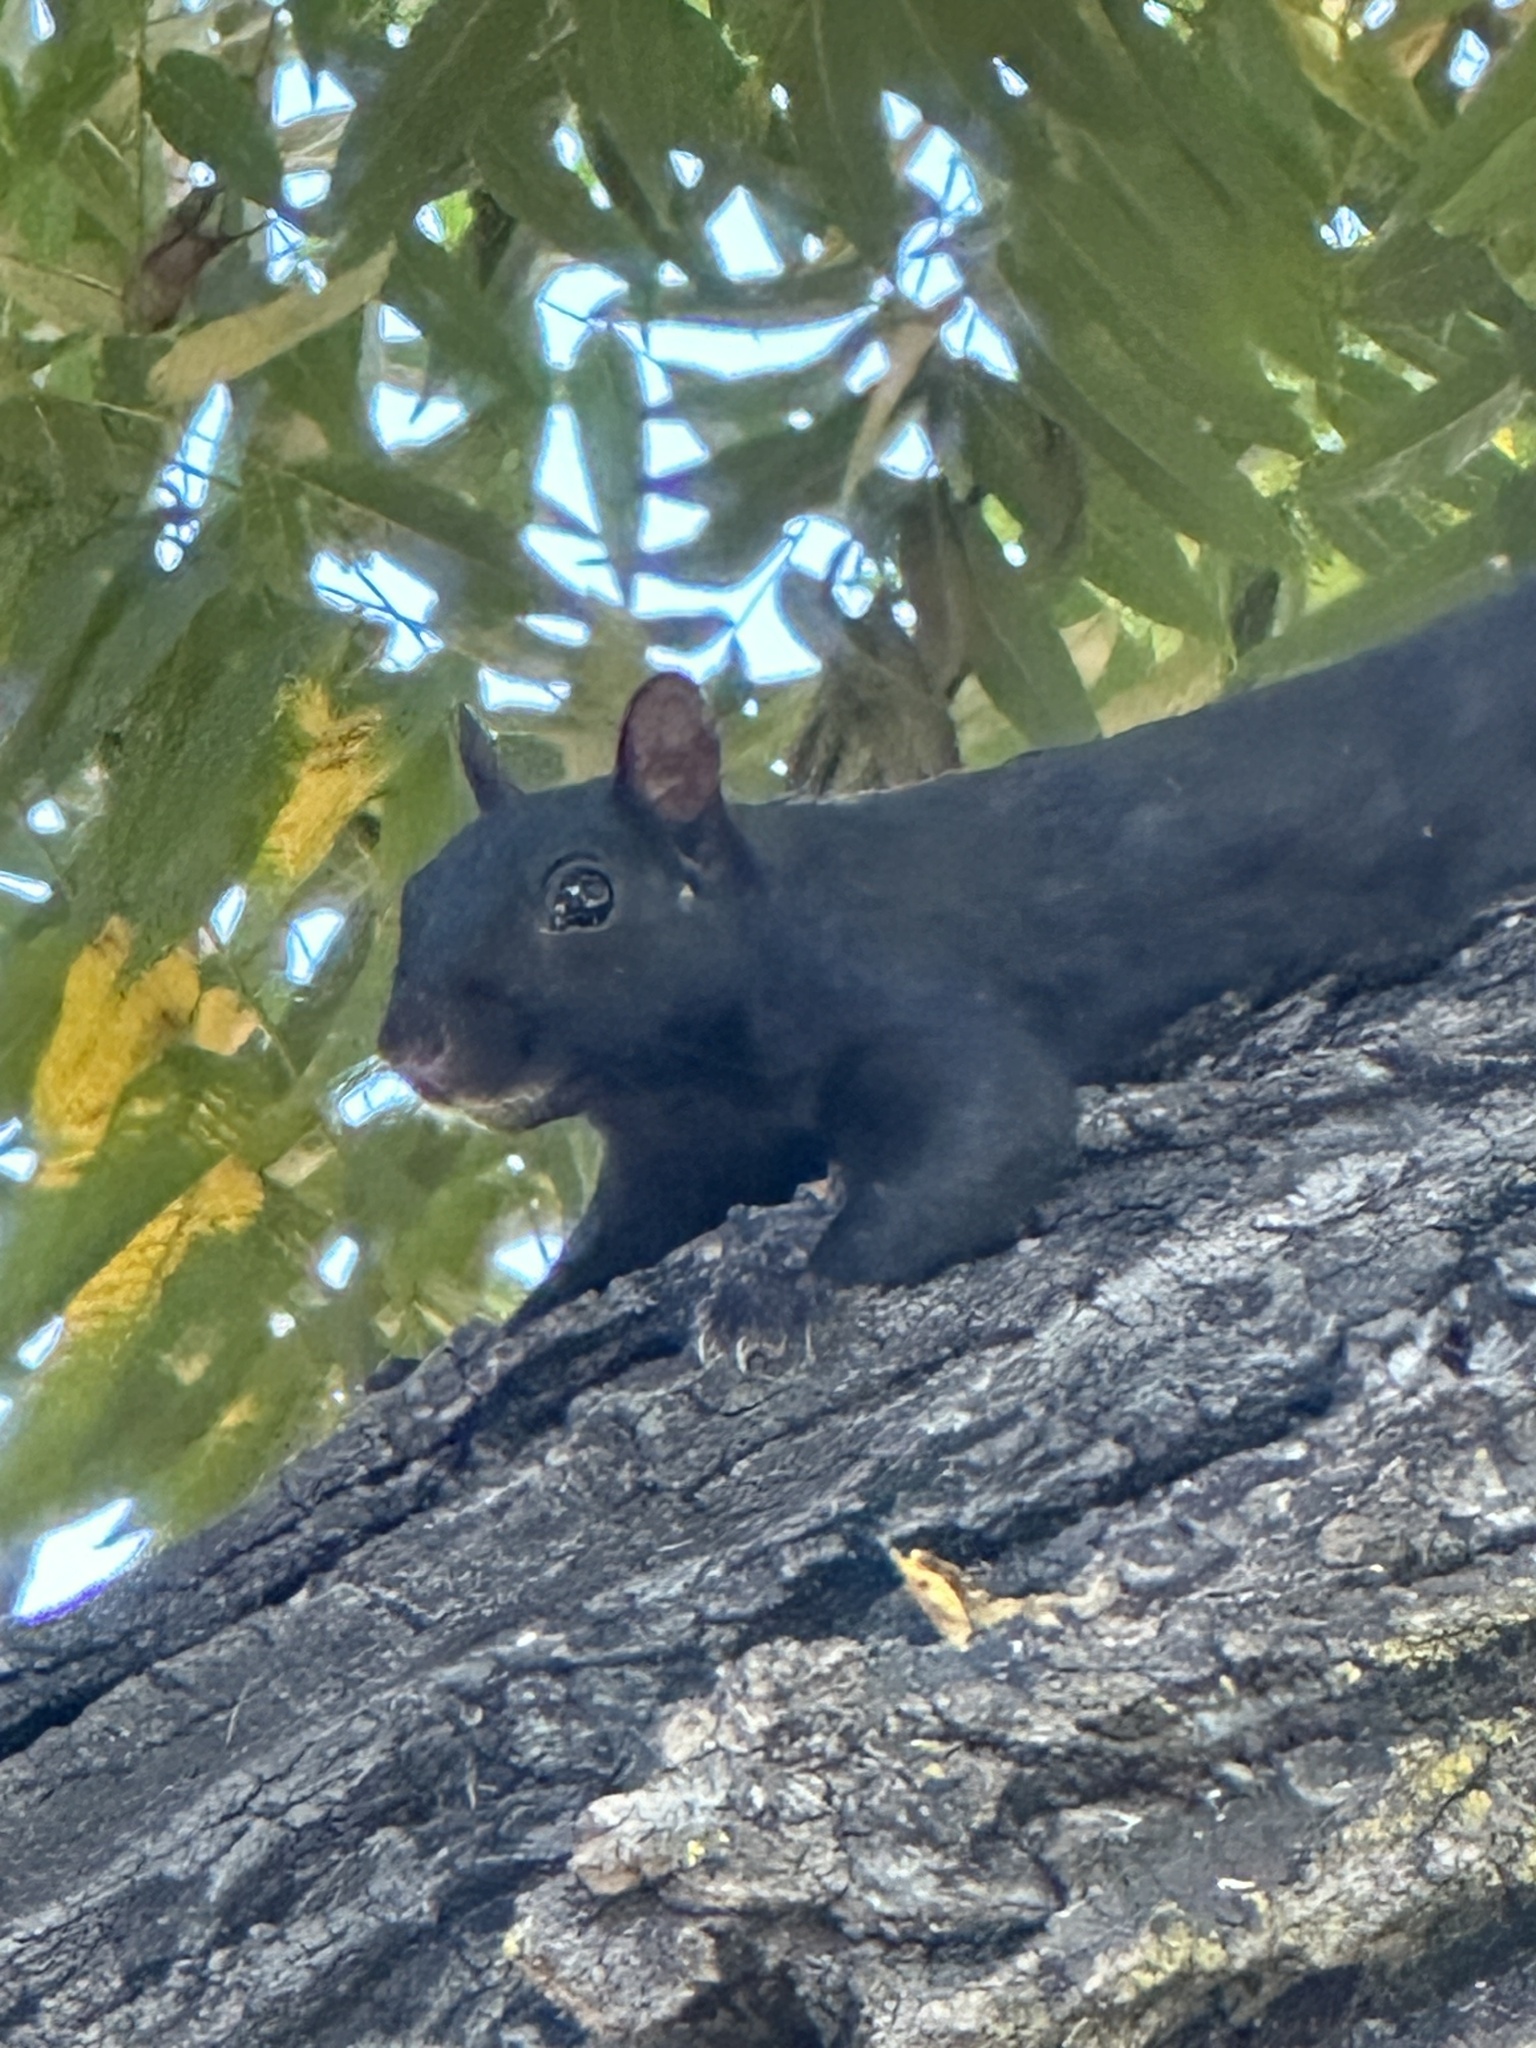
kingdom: Animalia
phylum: Chordata
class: Mammalia
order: Rodentia
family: Sciuridae
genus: Sciurus
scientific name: Sciurus carolinensis
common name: Eastern gray squirrel
